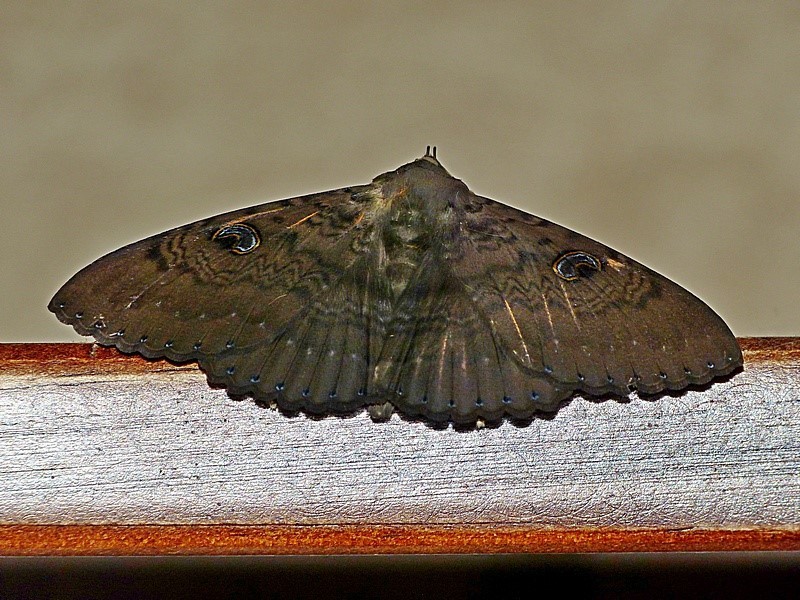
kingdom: Animalia
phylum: Arthropoda
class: Insecta
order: Lepidoptera
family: Erebidae
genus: Dasypodia
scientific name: Dasypodia selenophora
